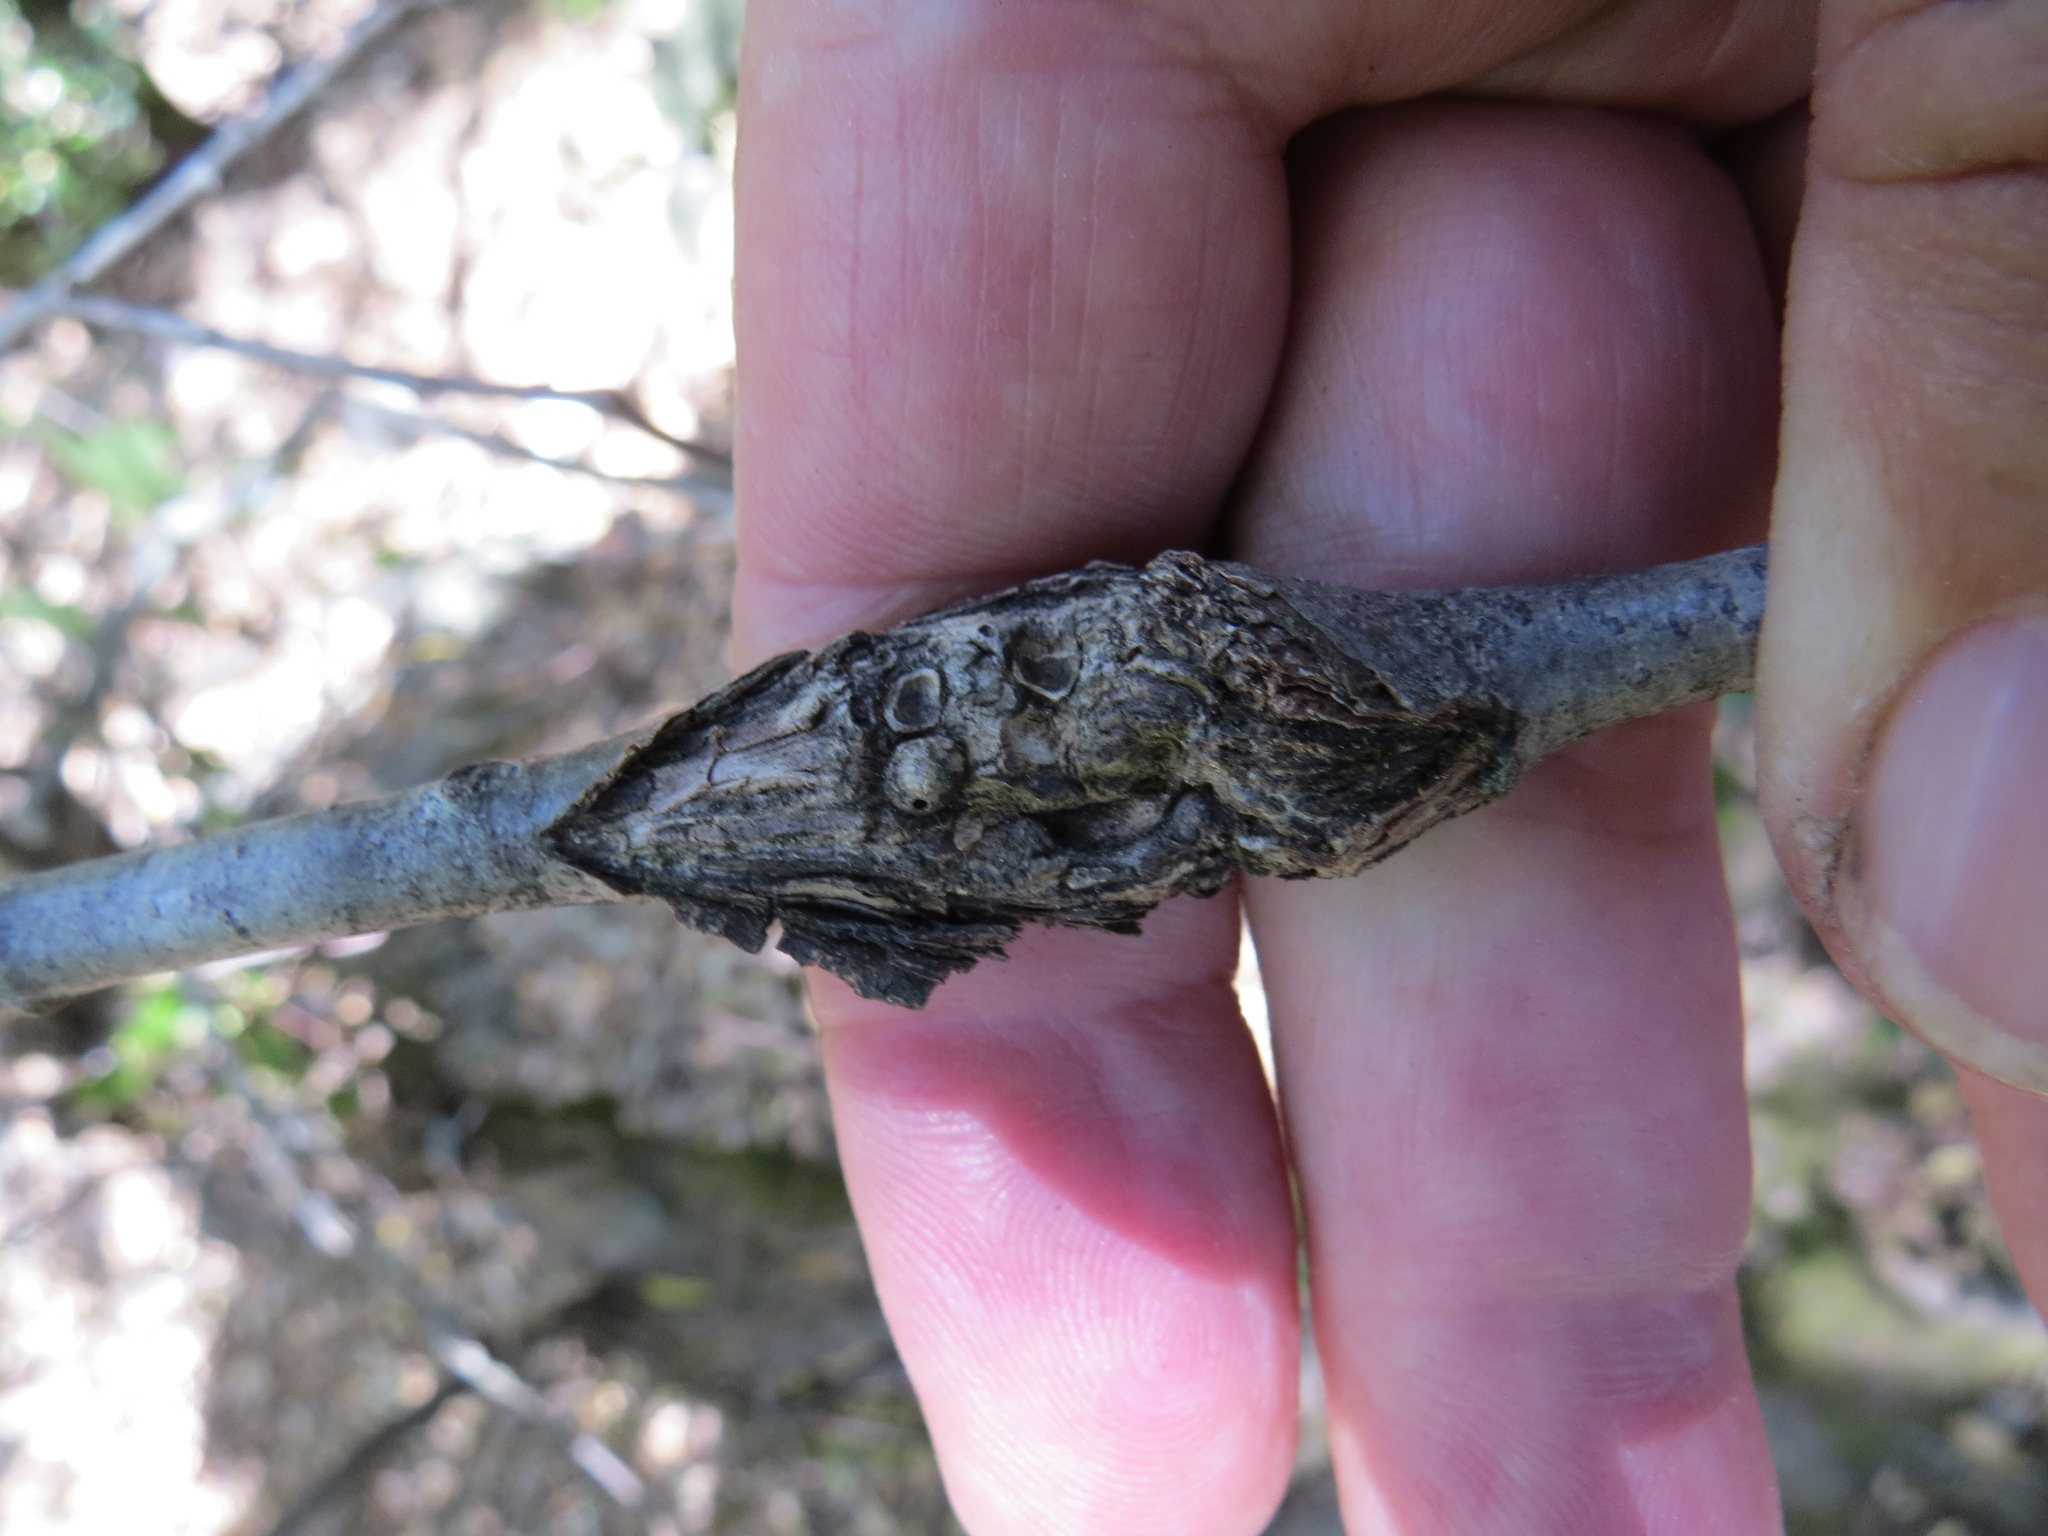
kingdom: Animalia
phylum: Arthropoda
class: Insecta
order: Hymenoptera
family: Cynipidae
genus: Dryocosmus
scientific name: Dryocosmus
